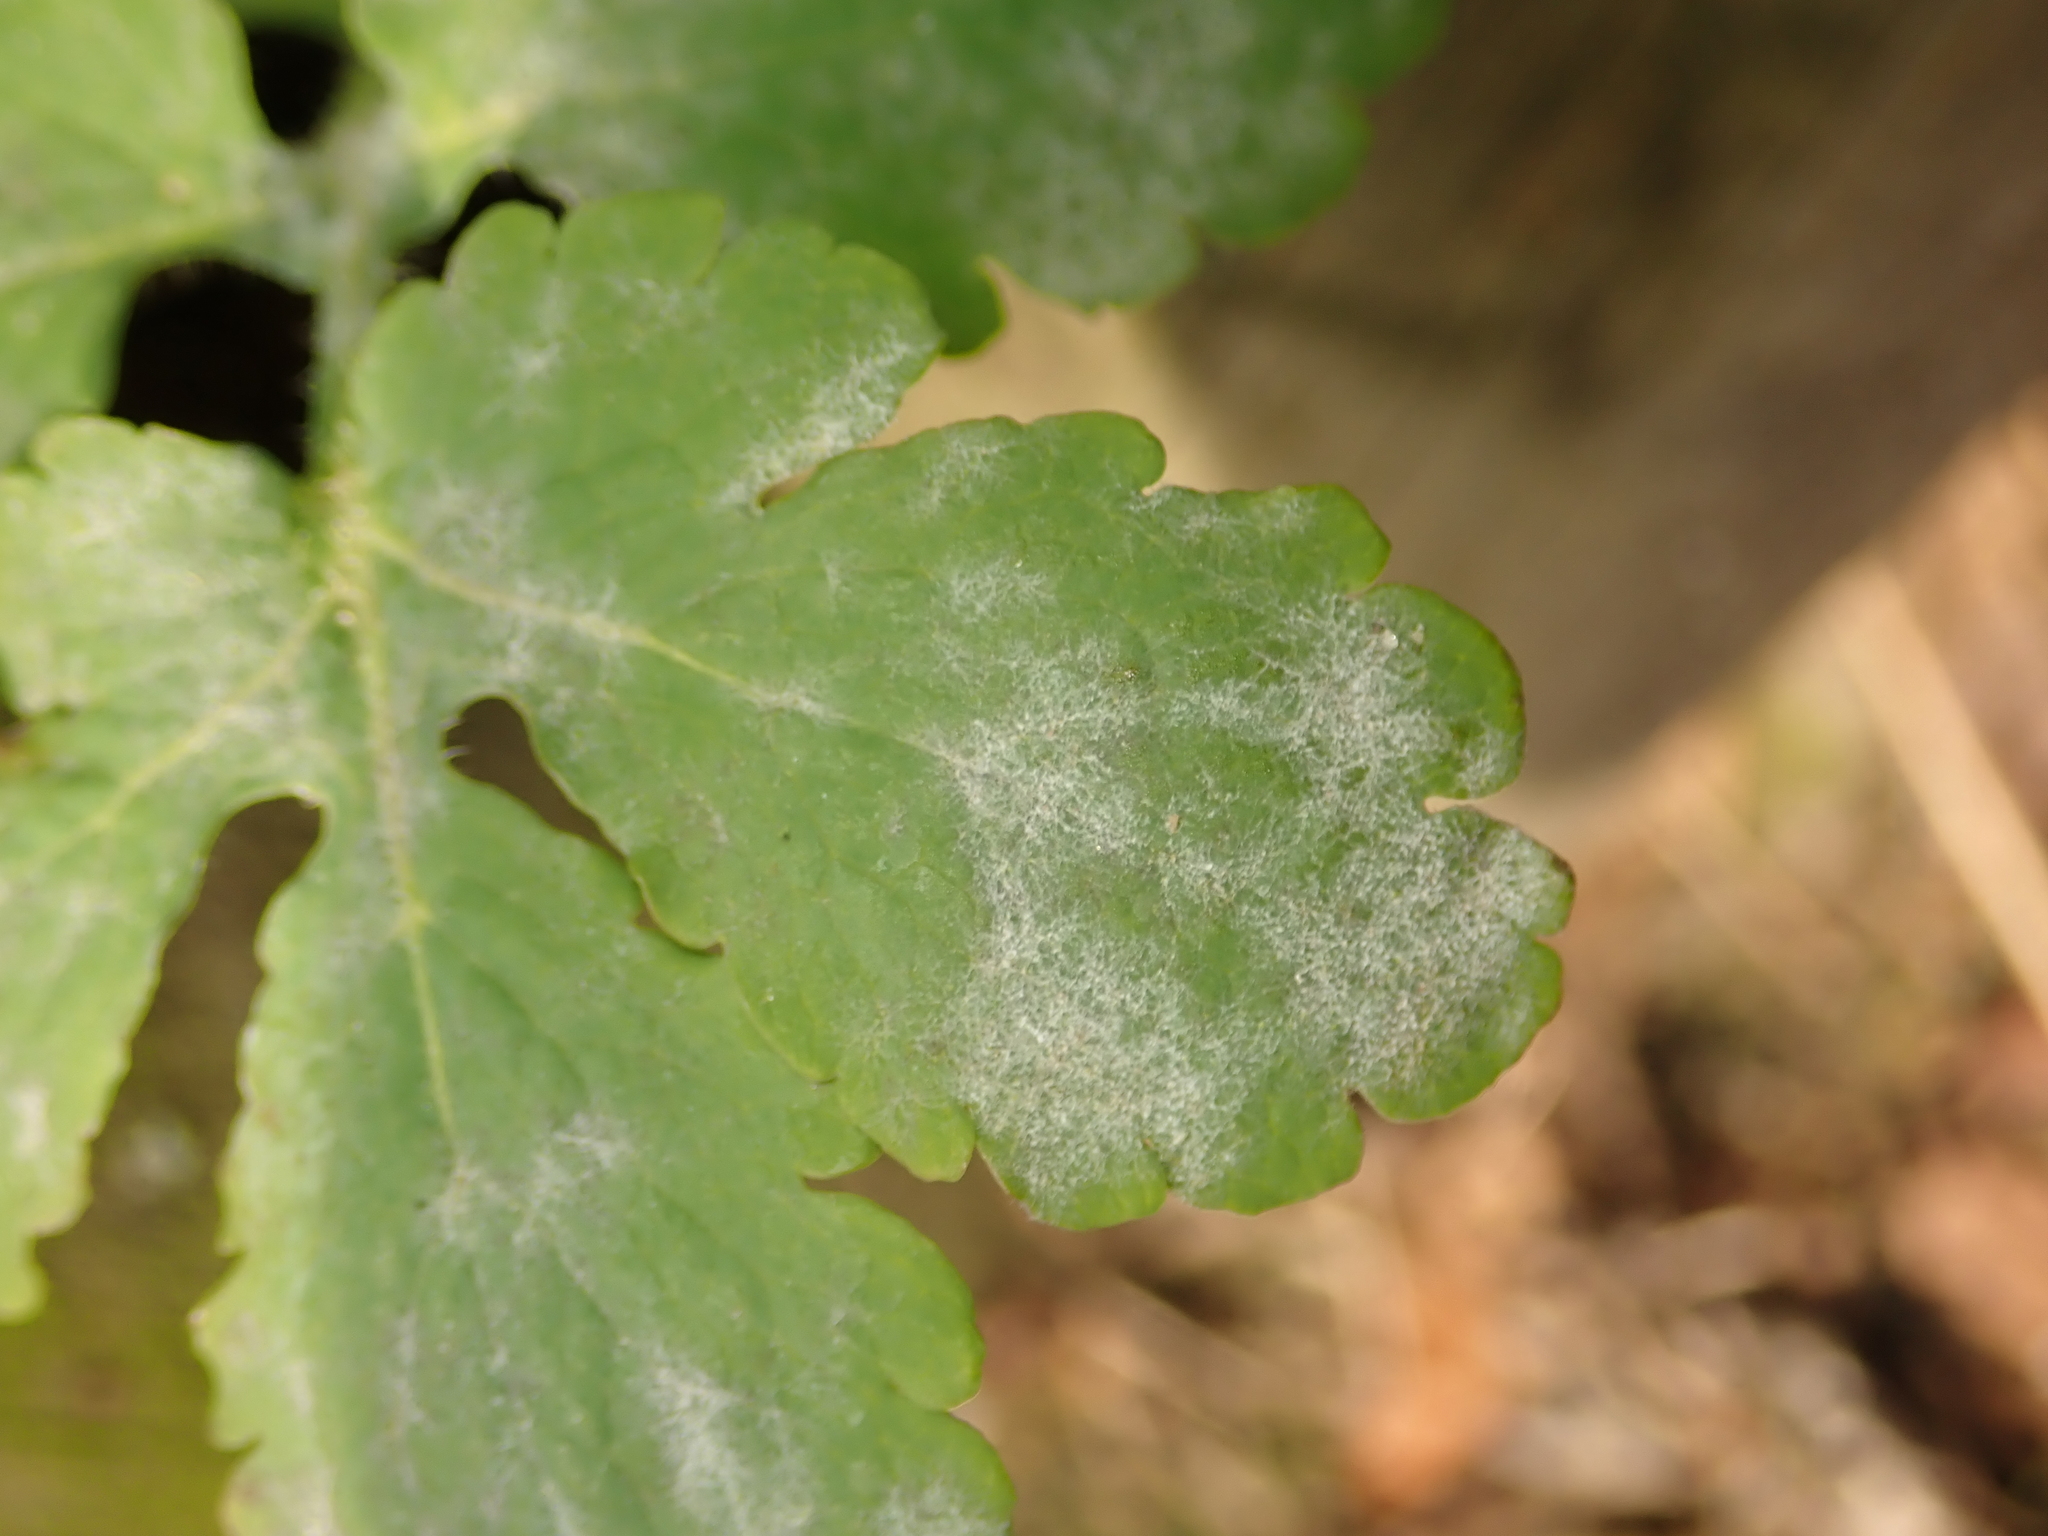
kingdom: Fungi
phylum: Ascomycota
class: Leotiomycetes
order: Helotiales
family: Erysiphaceae
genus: Erysiphe
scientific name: Erysiphe macleayae
